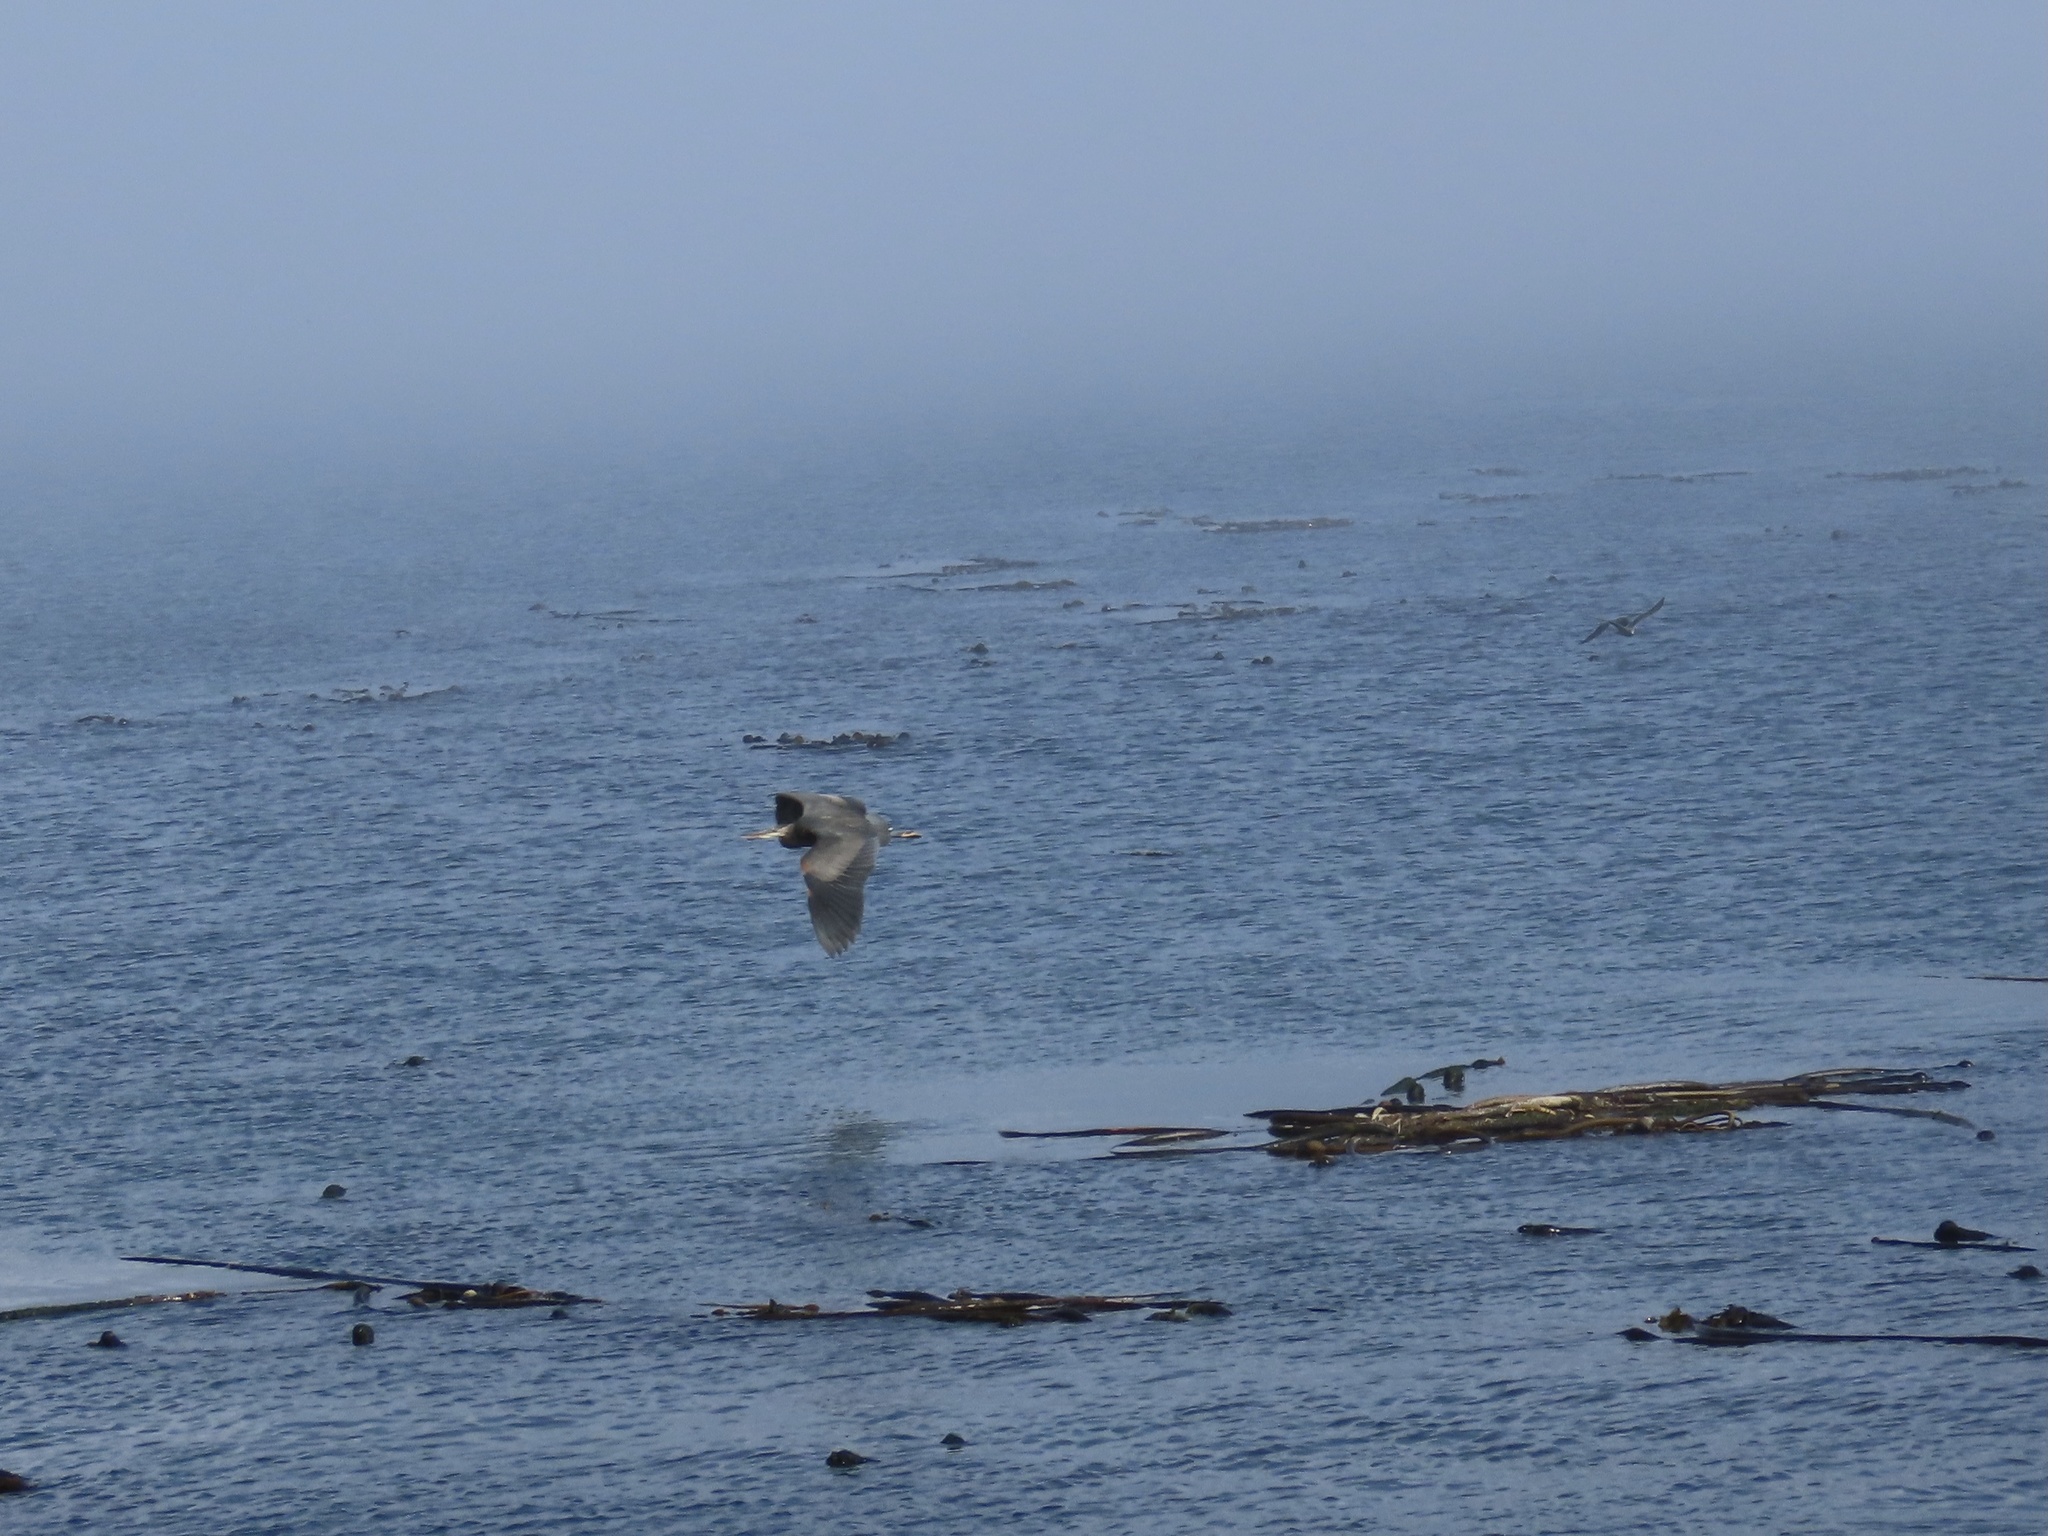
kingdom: Animalia
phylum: Chordata
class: Aves
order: Pelecaniformes
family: Ardeidae
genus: Ardea
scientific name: Ardea herodias
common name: Great blue heron
